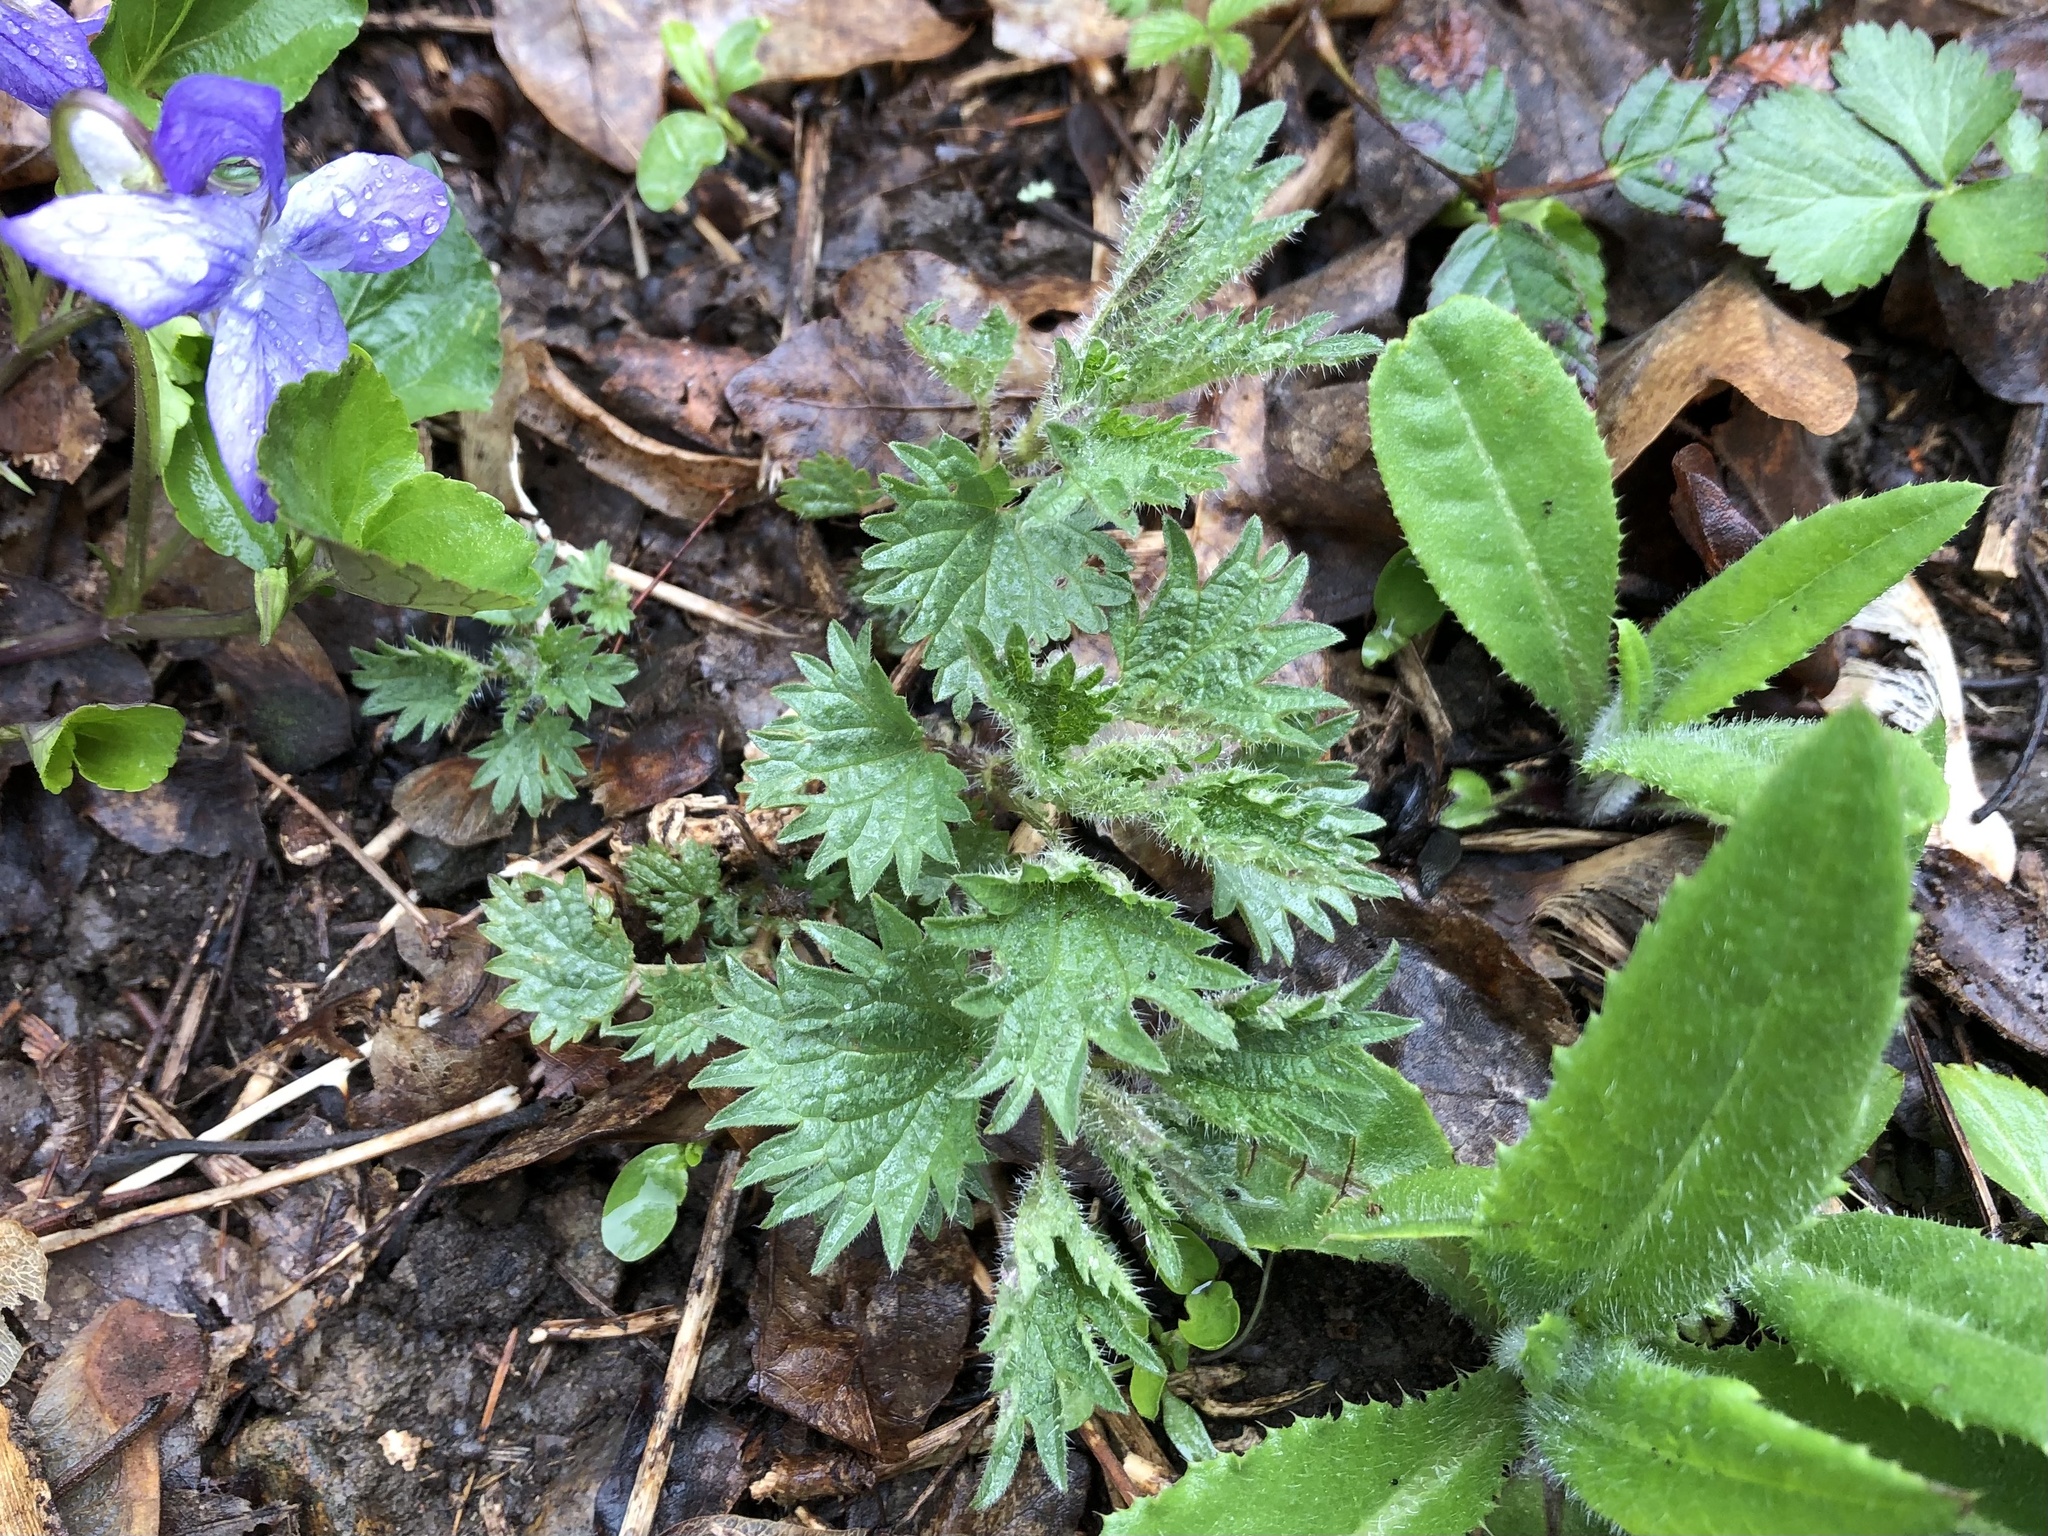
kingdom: Plantae
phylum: Tracheophyta
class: Magnoliopsida
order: Rosales
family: Urticaceae
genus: Urtica
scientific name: Urtica dioica
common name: Common nettle
